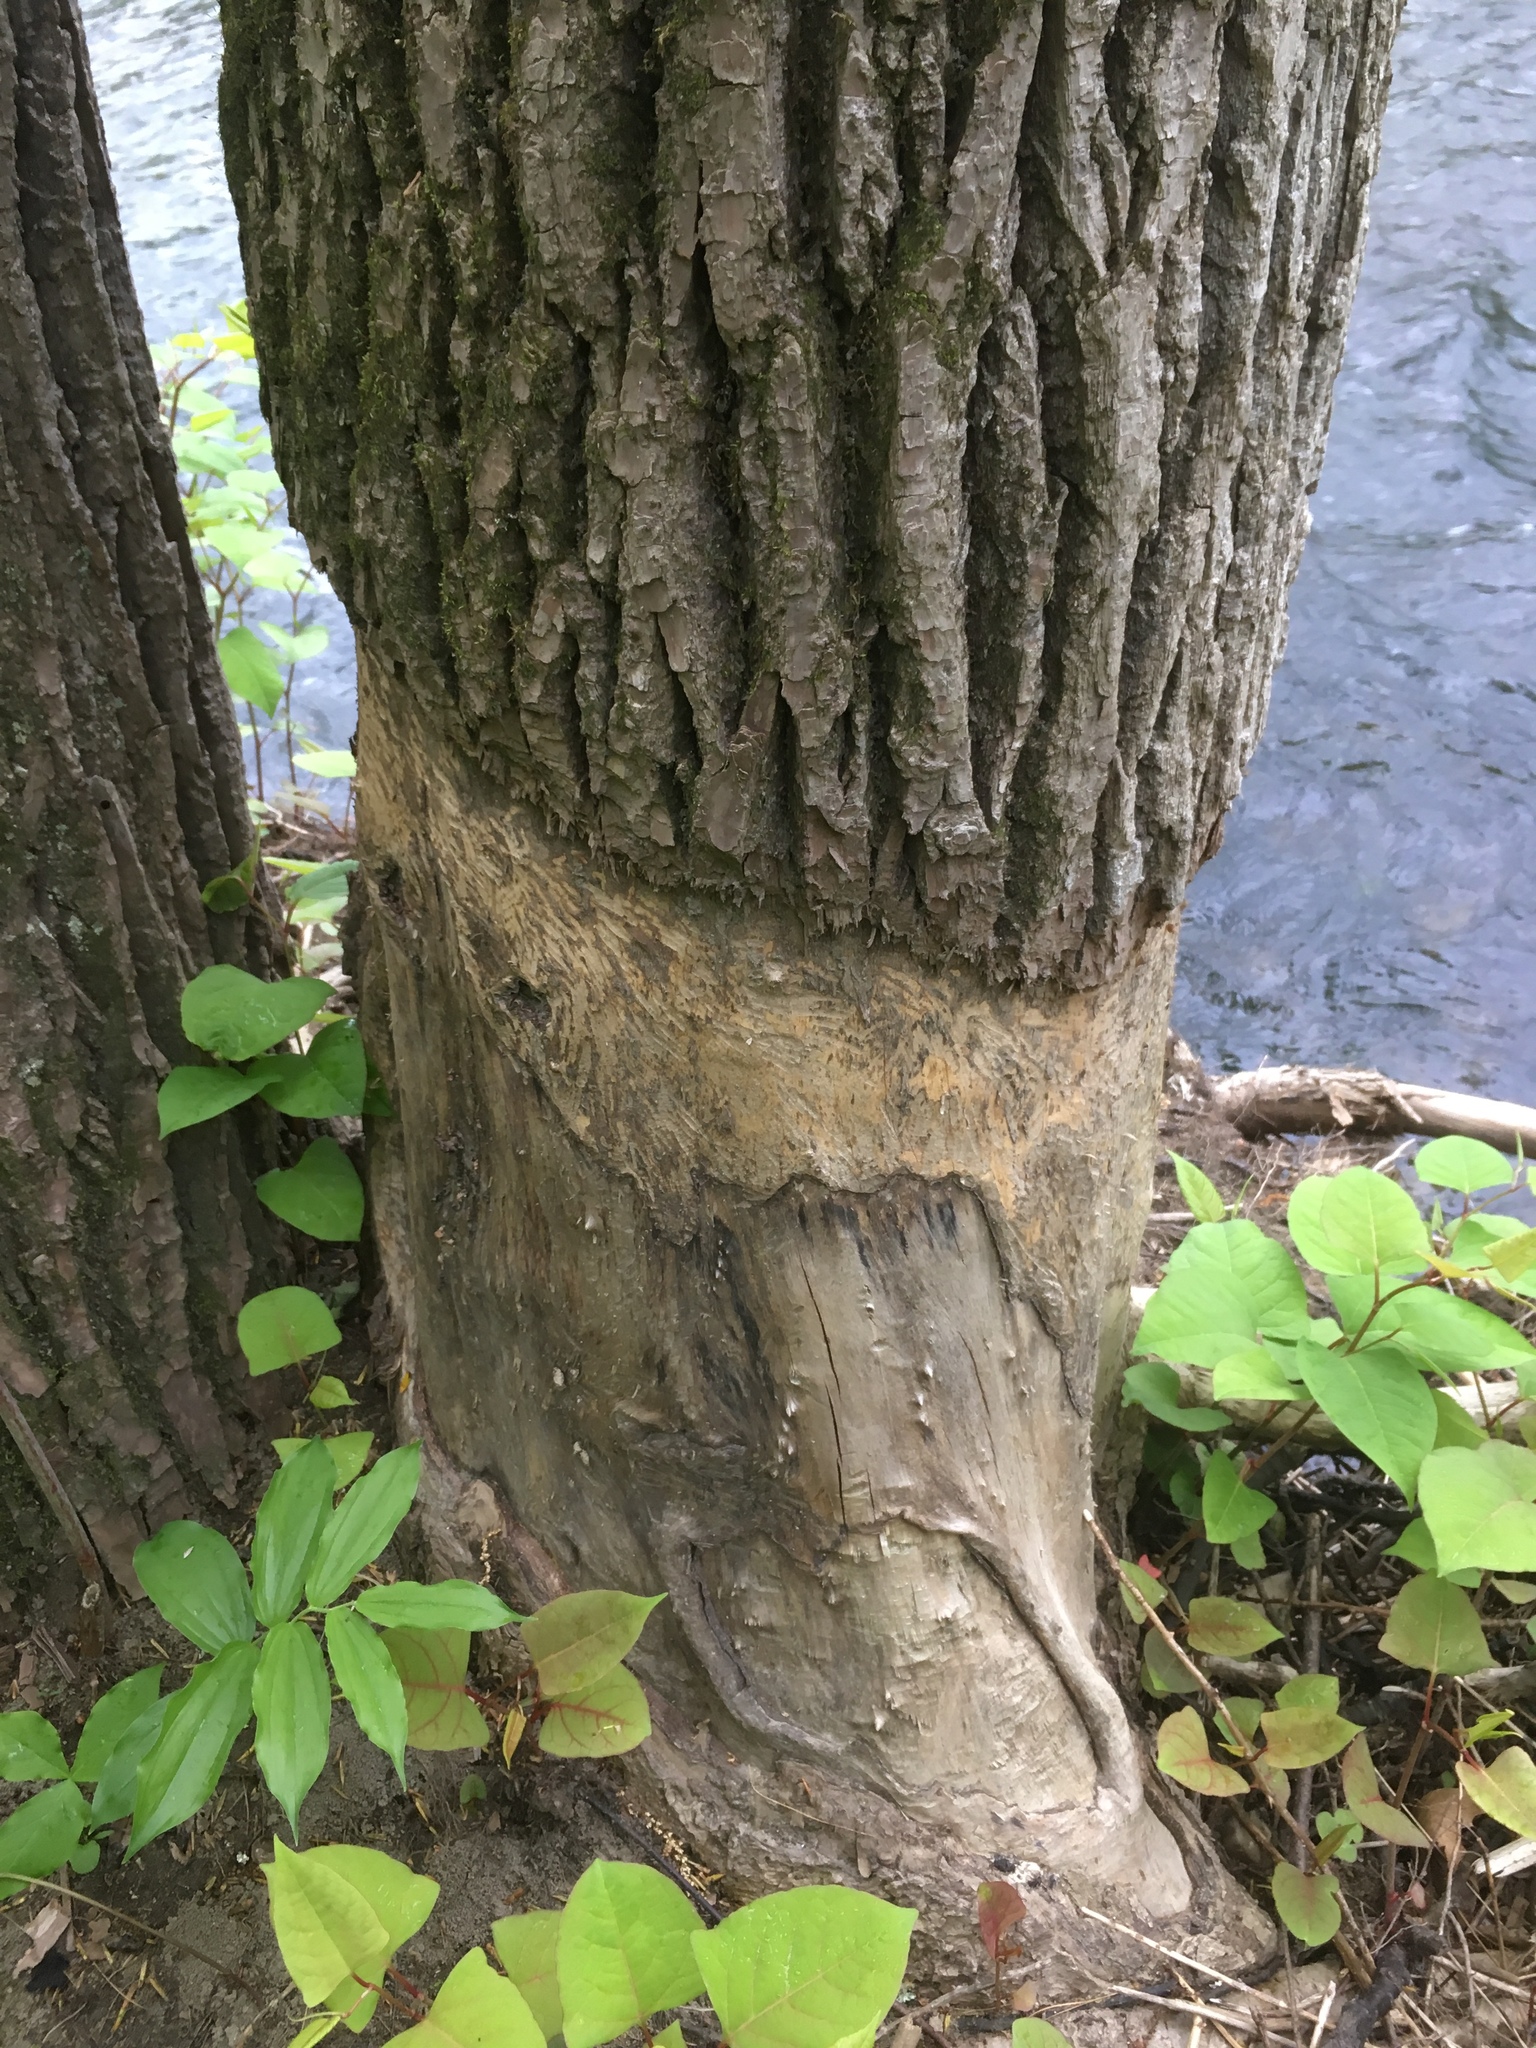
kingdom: Animalia
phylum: Chordata
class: Mammalia
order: Rodentia
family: Castoridae
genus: Castor
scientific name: Castor canadensis
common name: American beaver
